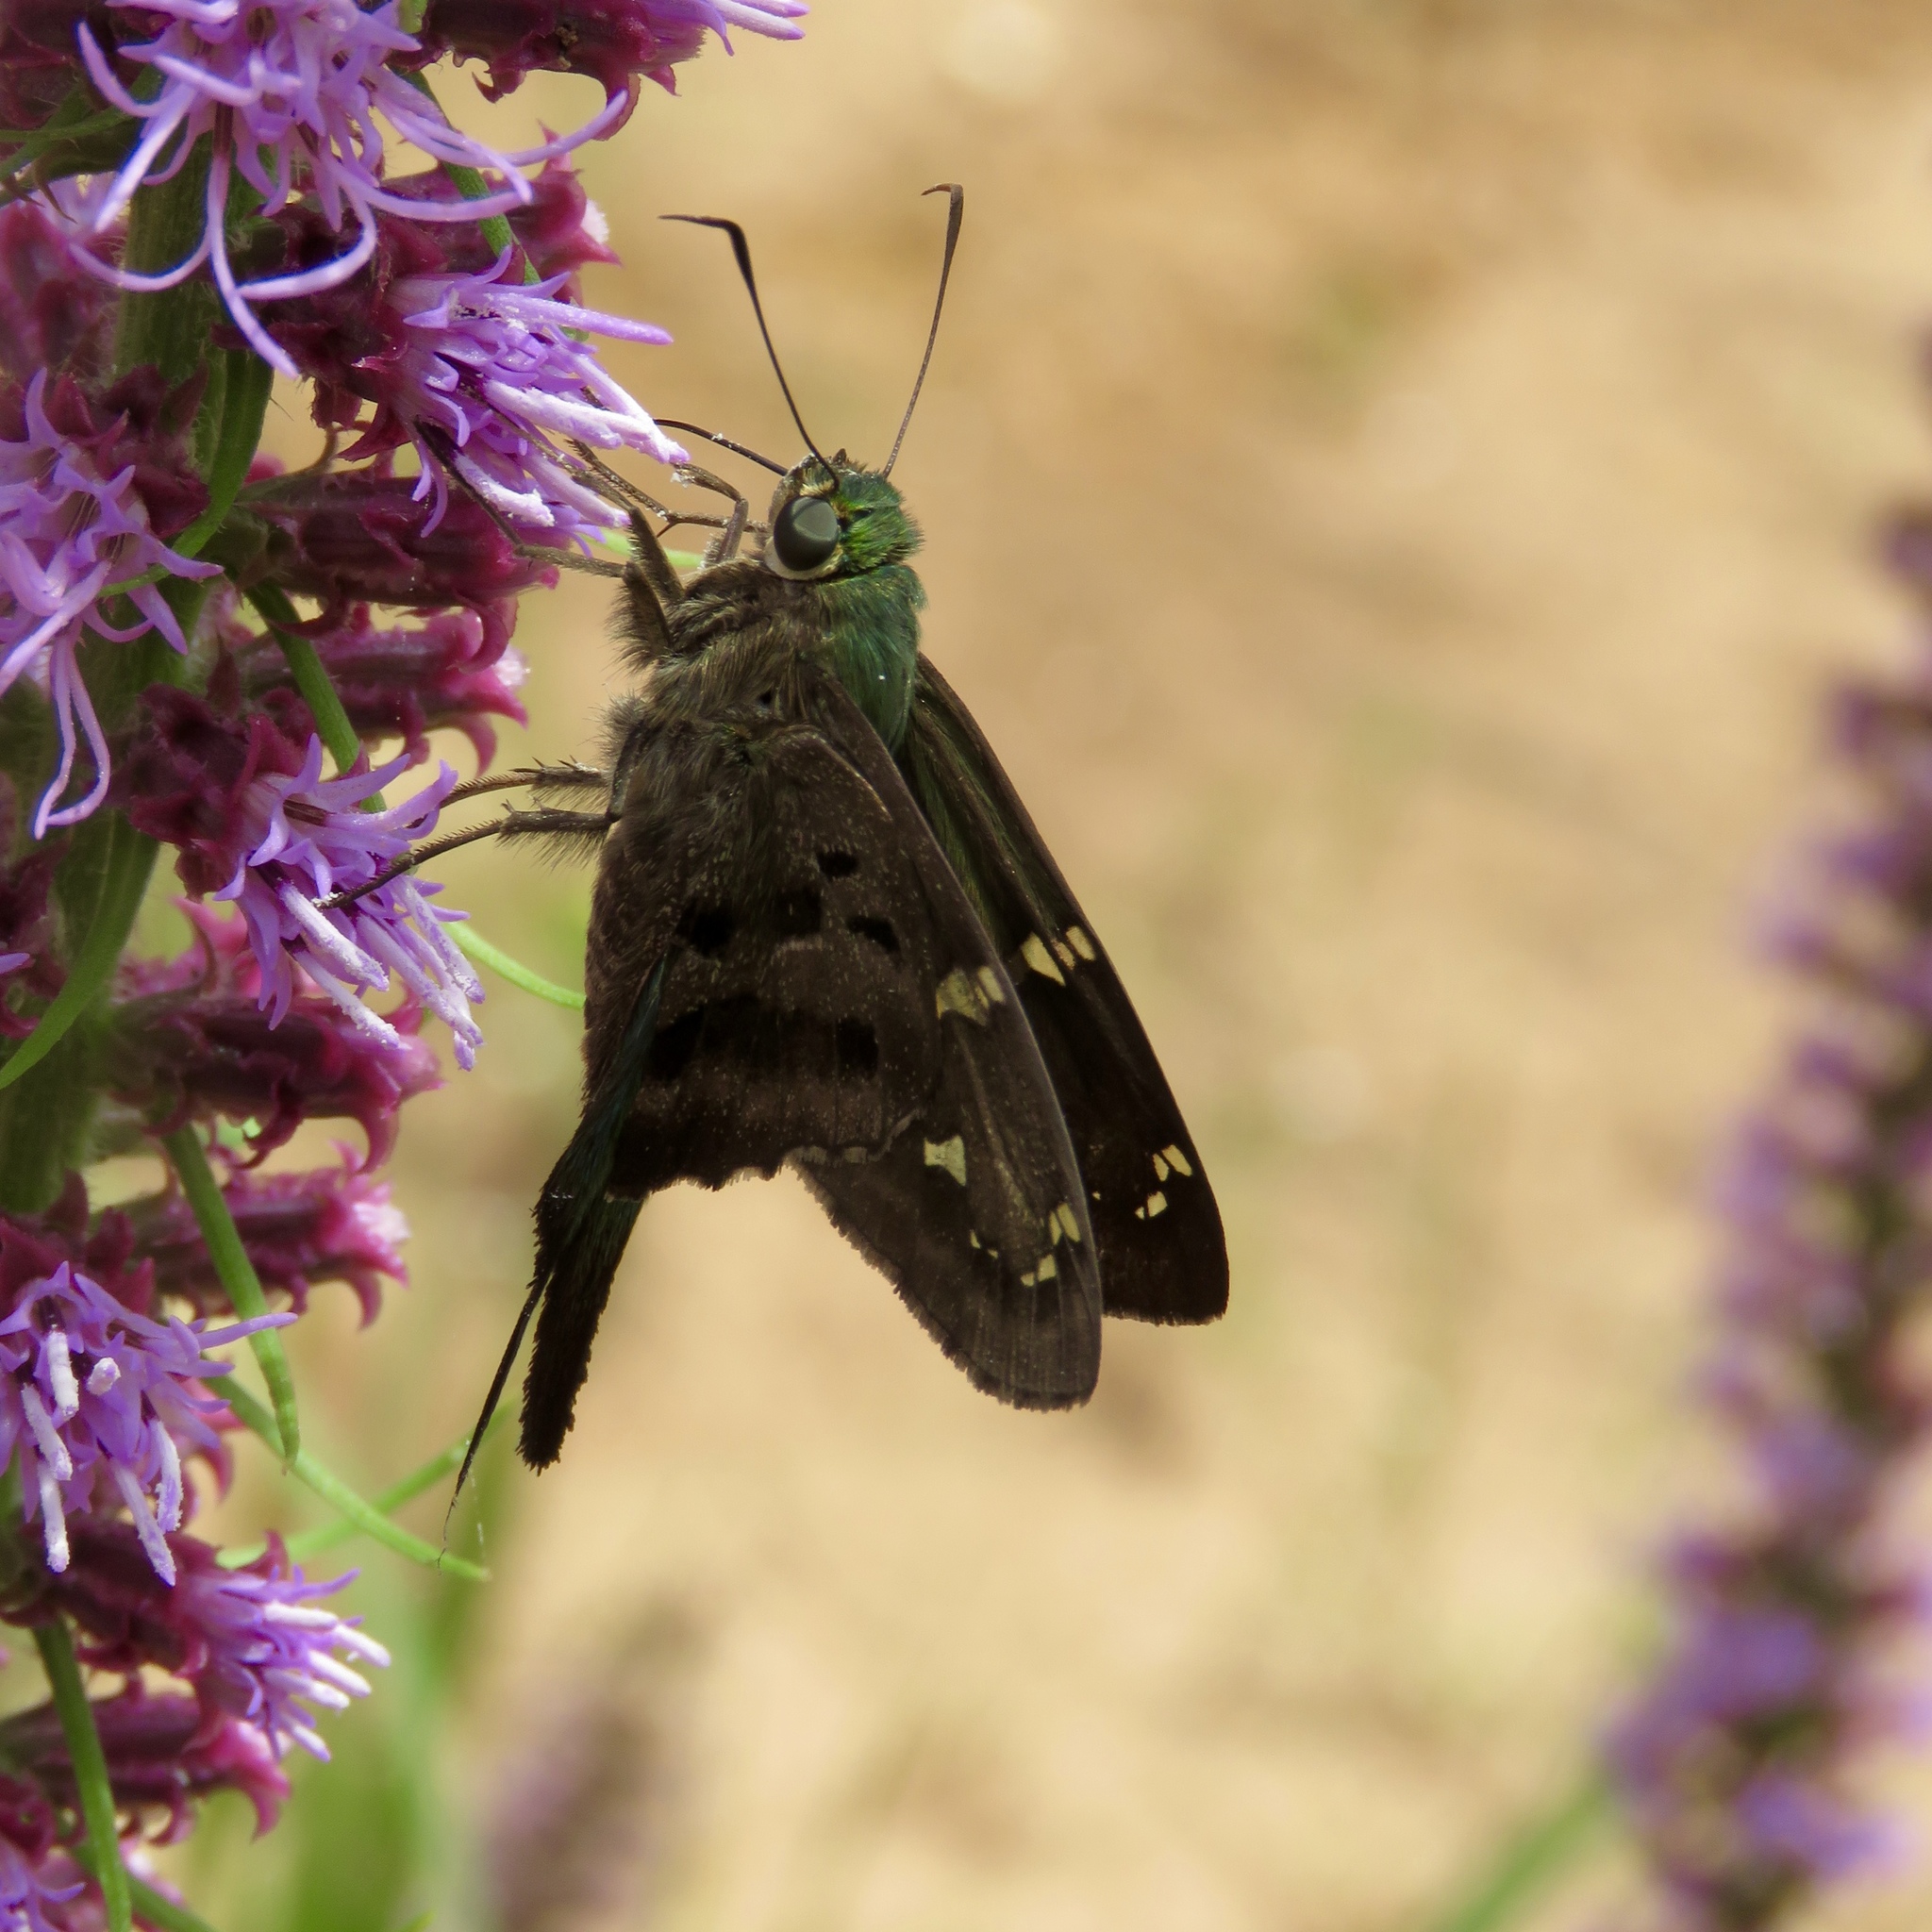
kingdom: Animalia
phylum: Arthropoda
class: Insecta
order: Lepidoptera
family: Hesperiidae
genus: Thorybes
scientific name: Thorybes
